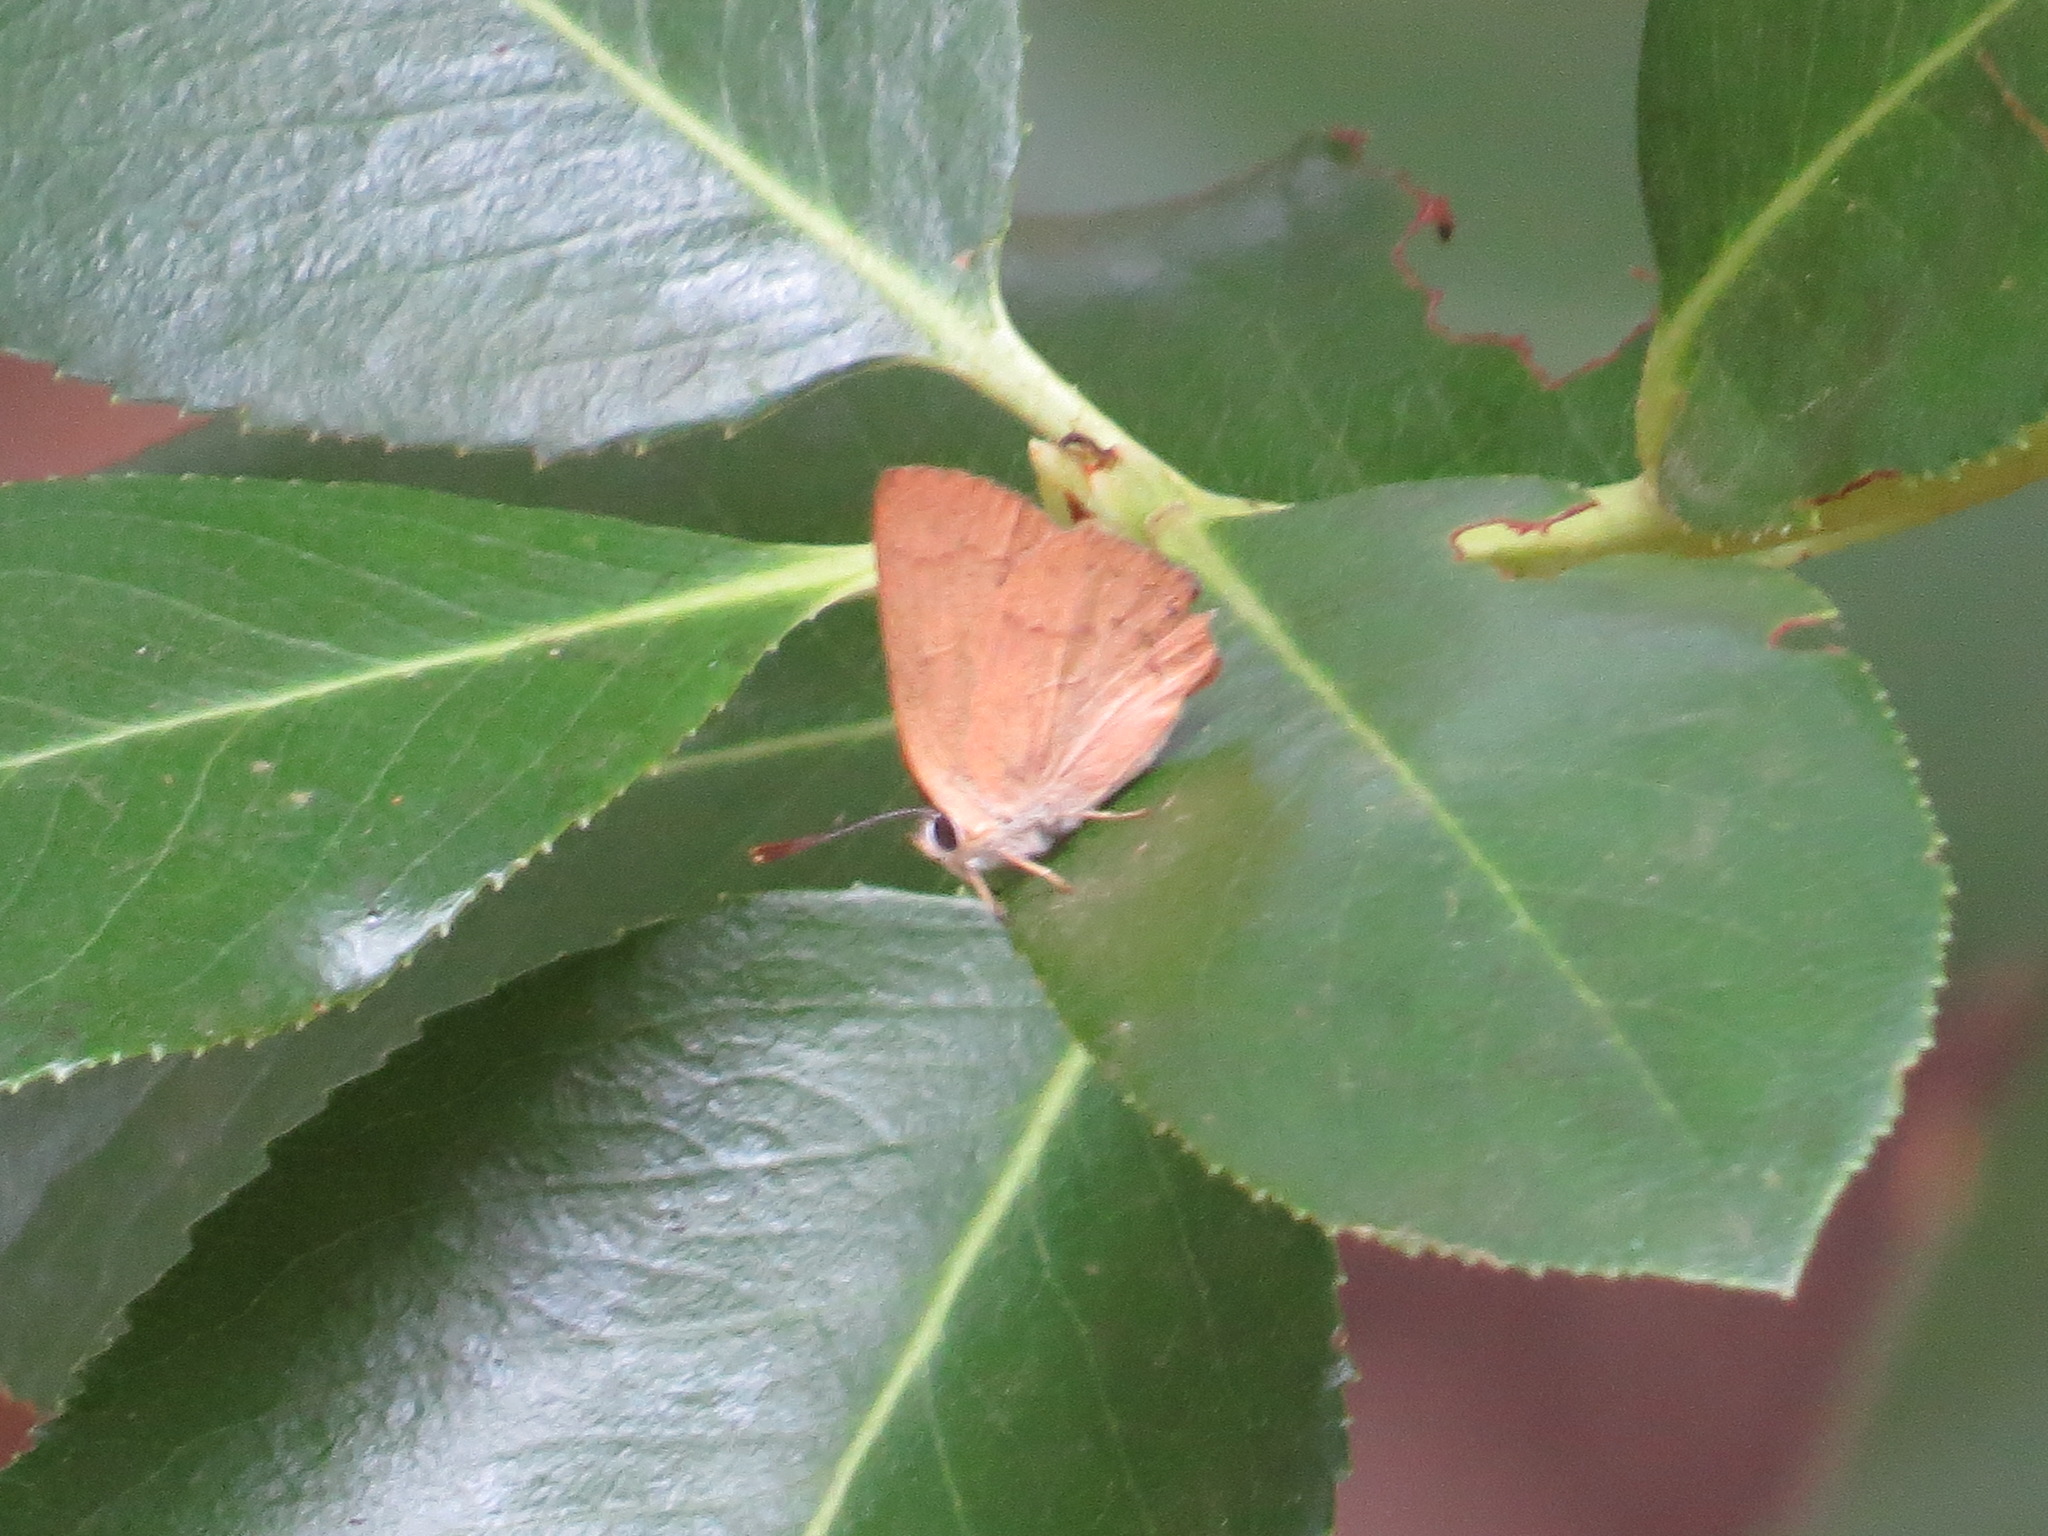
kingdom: Animalia
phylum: Arthropoda
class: Insecta
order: Lepidoptera
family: Lycaenidae
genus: Habrodais
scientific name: Habrodais grunus
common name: Golden hairstreak
